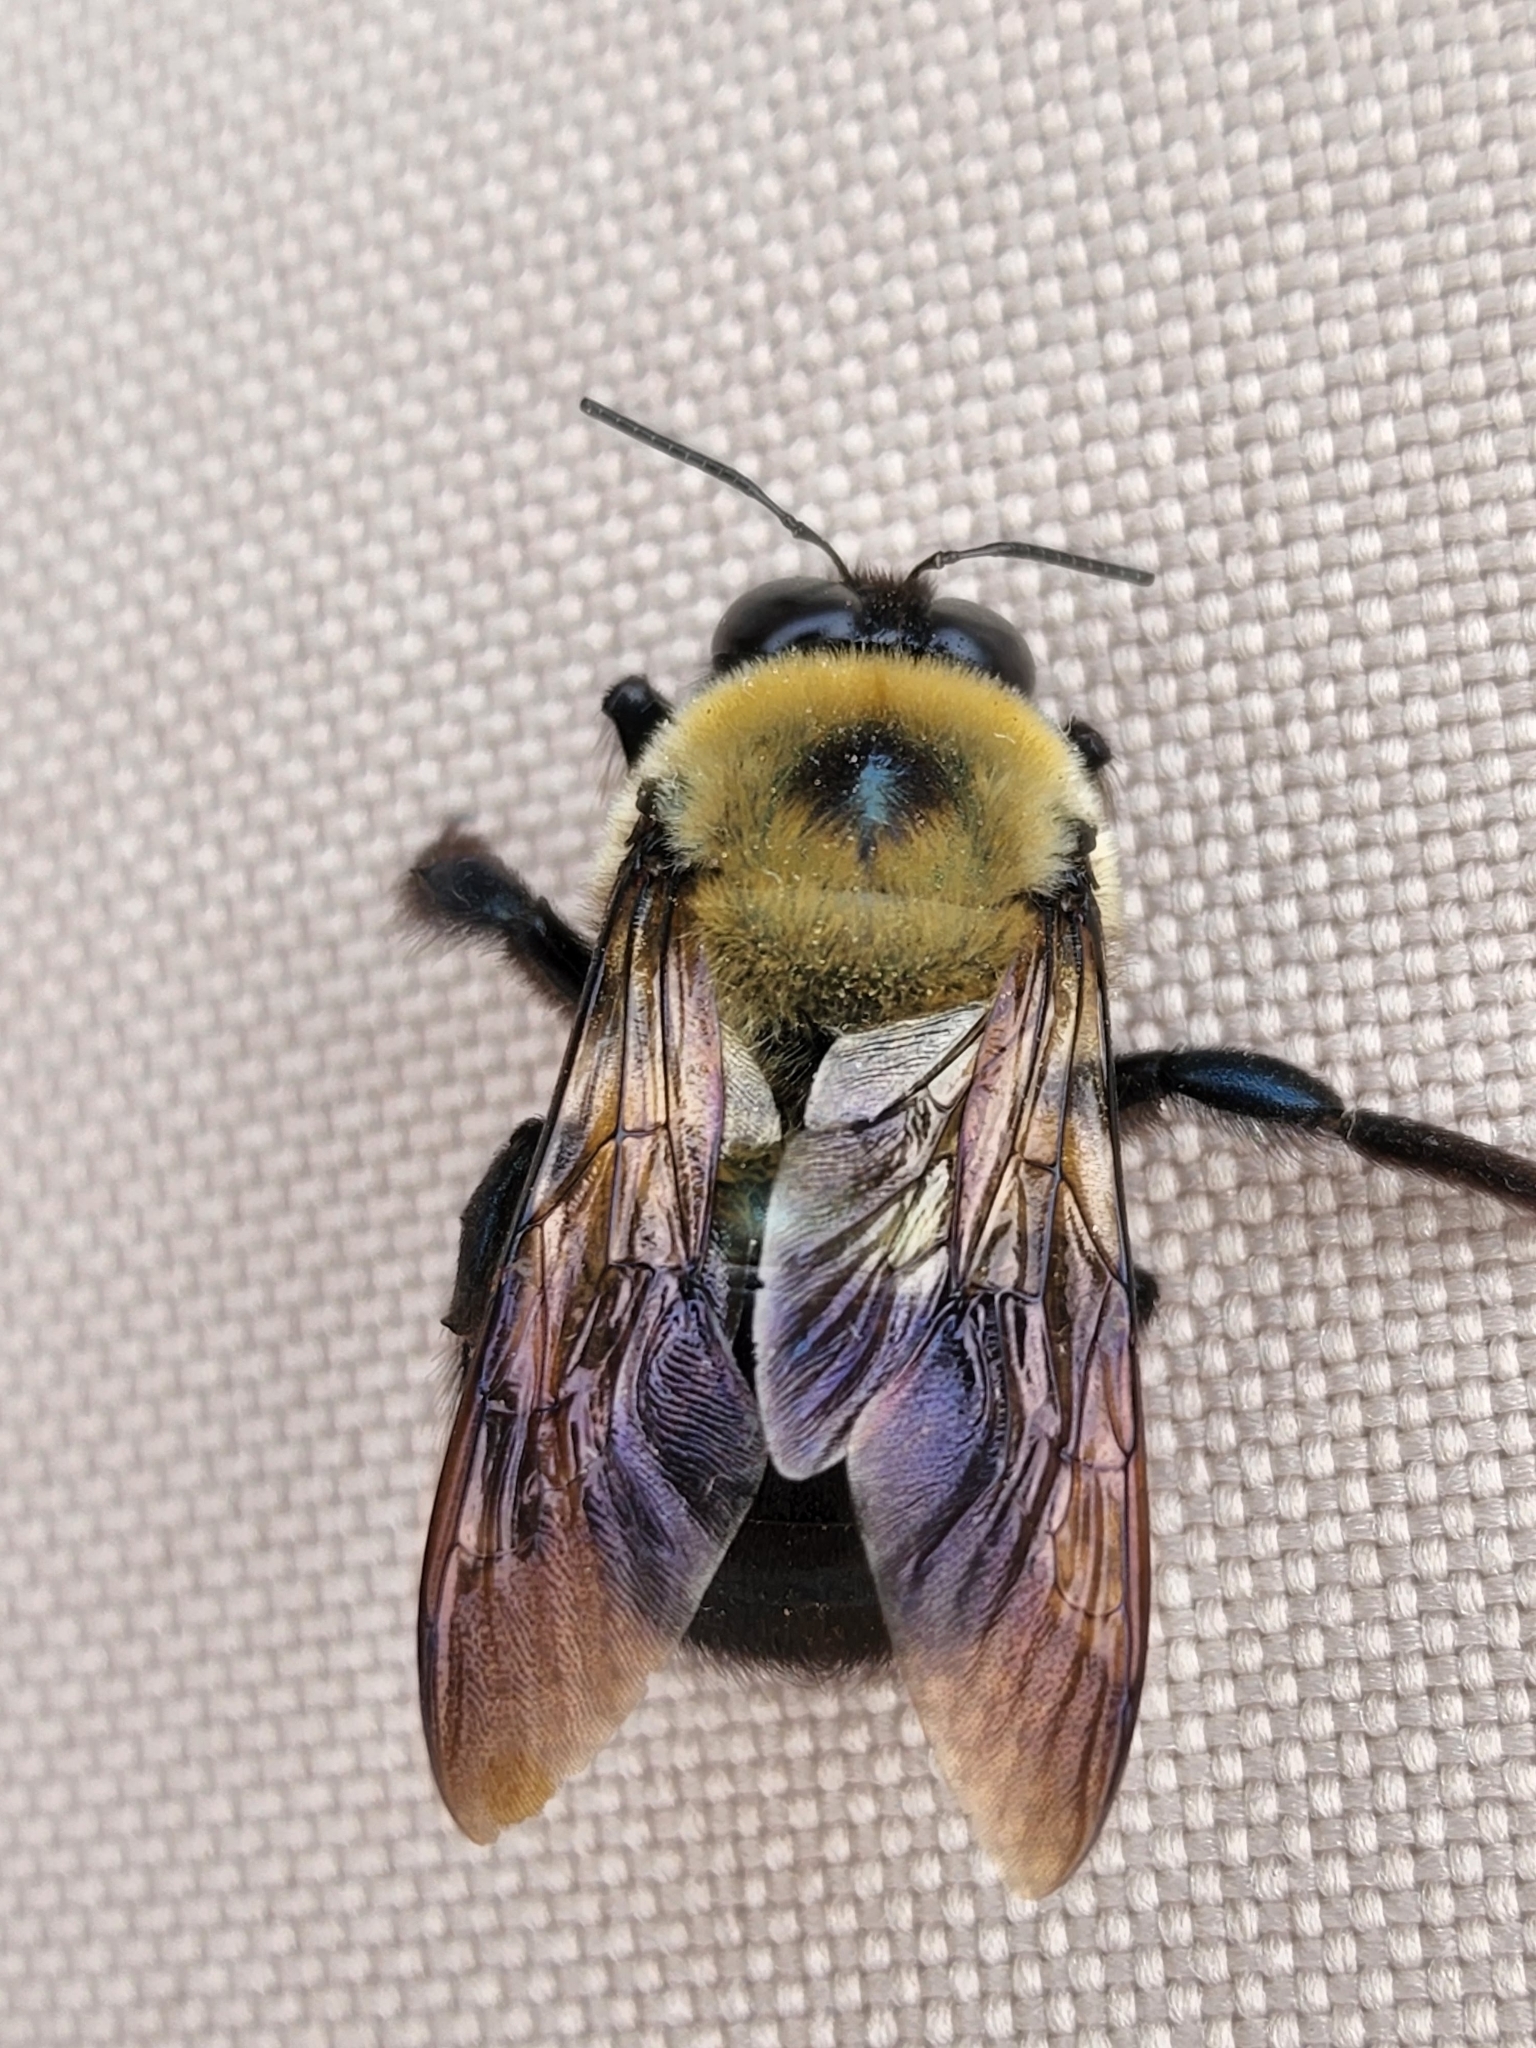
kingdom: Animalia
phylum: Arthropoda
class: Insecta
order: Hymenoptera
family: Apidae
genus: Xylocopa
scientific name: Xylocopa virginica
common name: Carpenter bee
